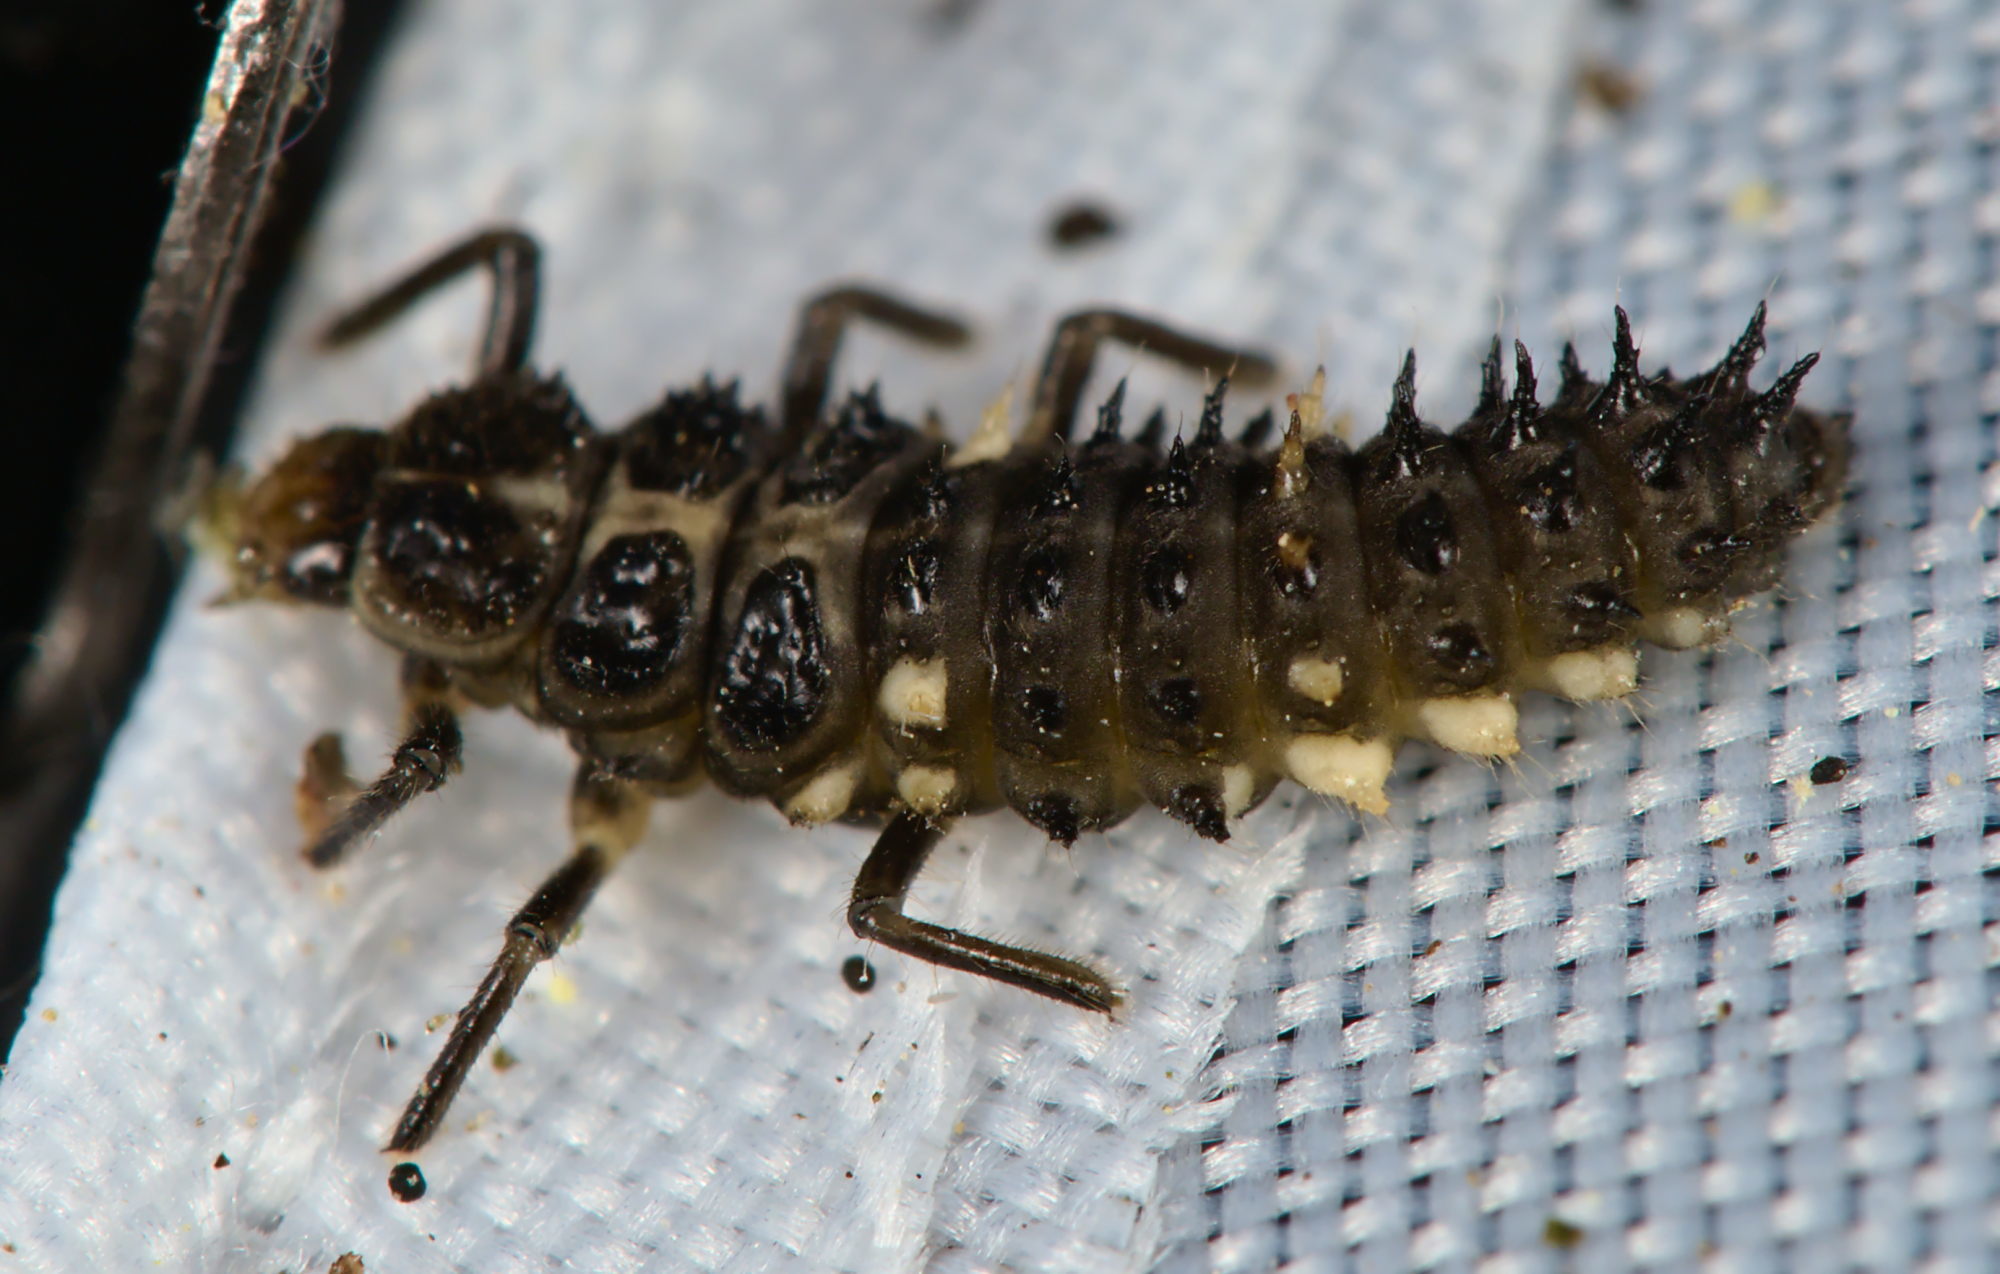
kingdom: Animalia
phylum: Arthropoda
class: Insecta
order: Coleoptera
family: Coccinellidae
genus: Calvia
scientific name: Calvia quatuordecimguttata
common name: Cream-spot ladybird
